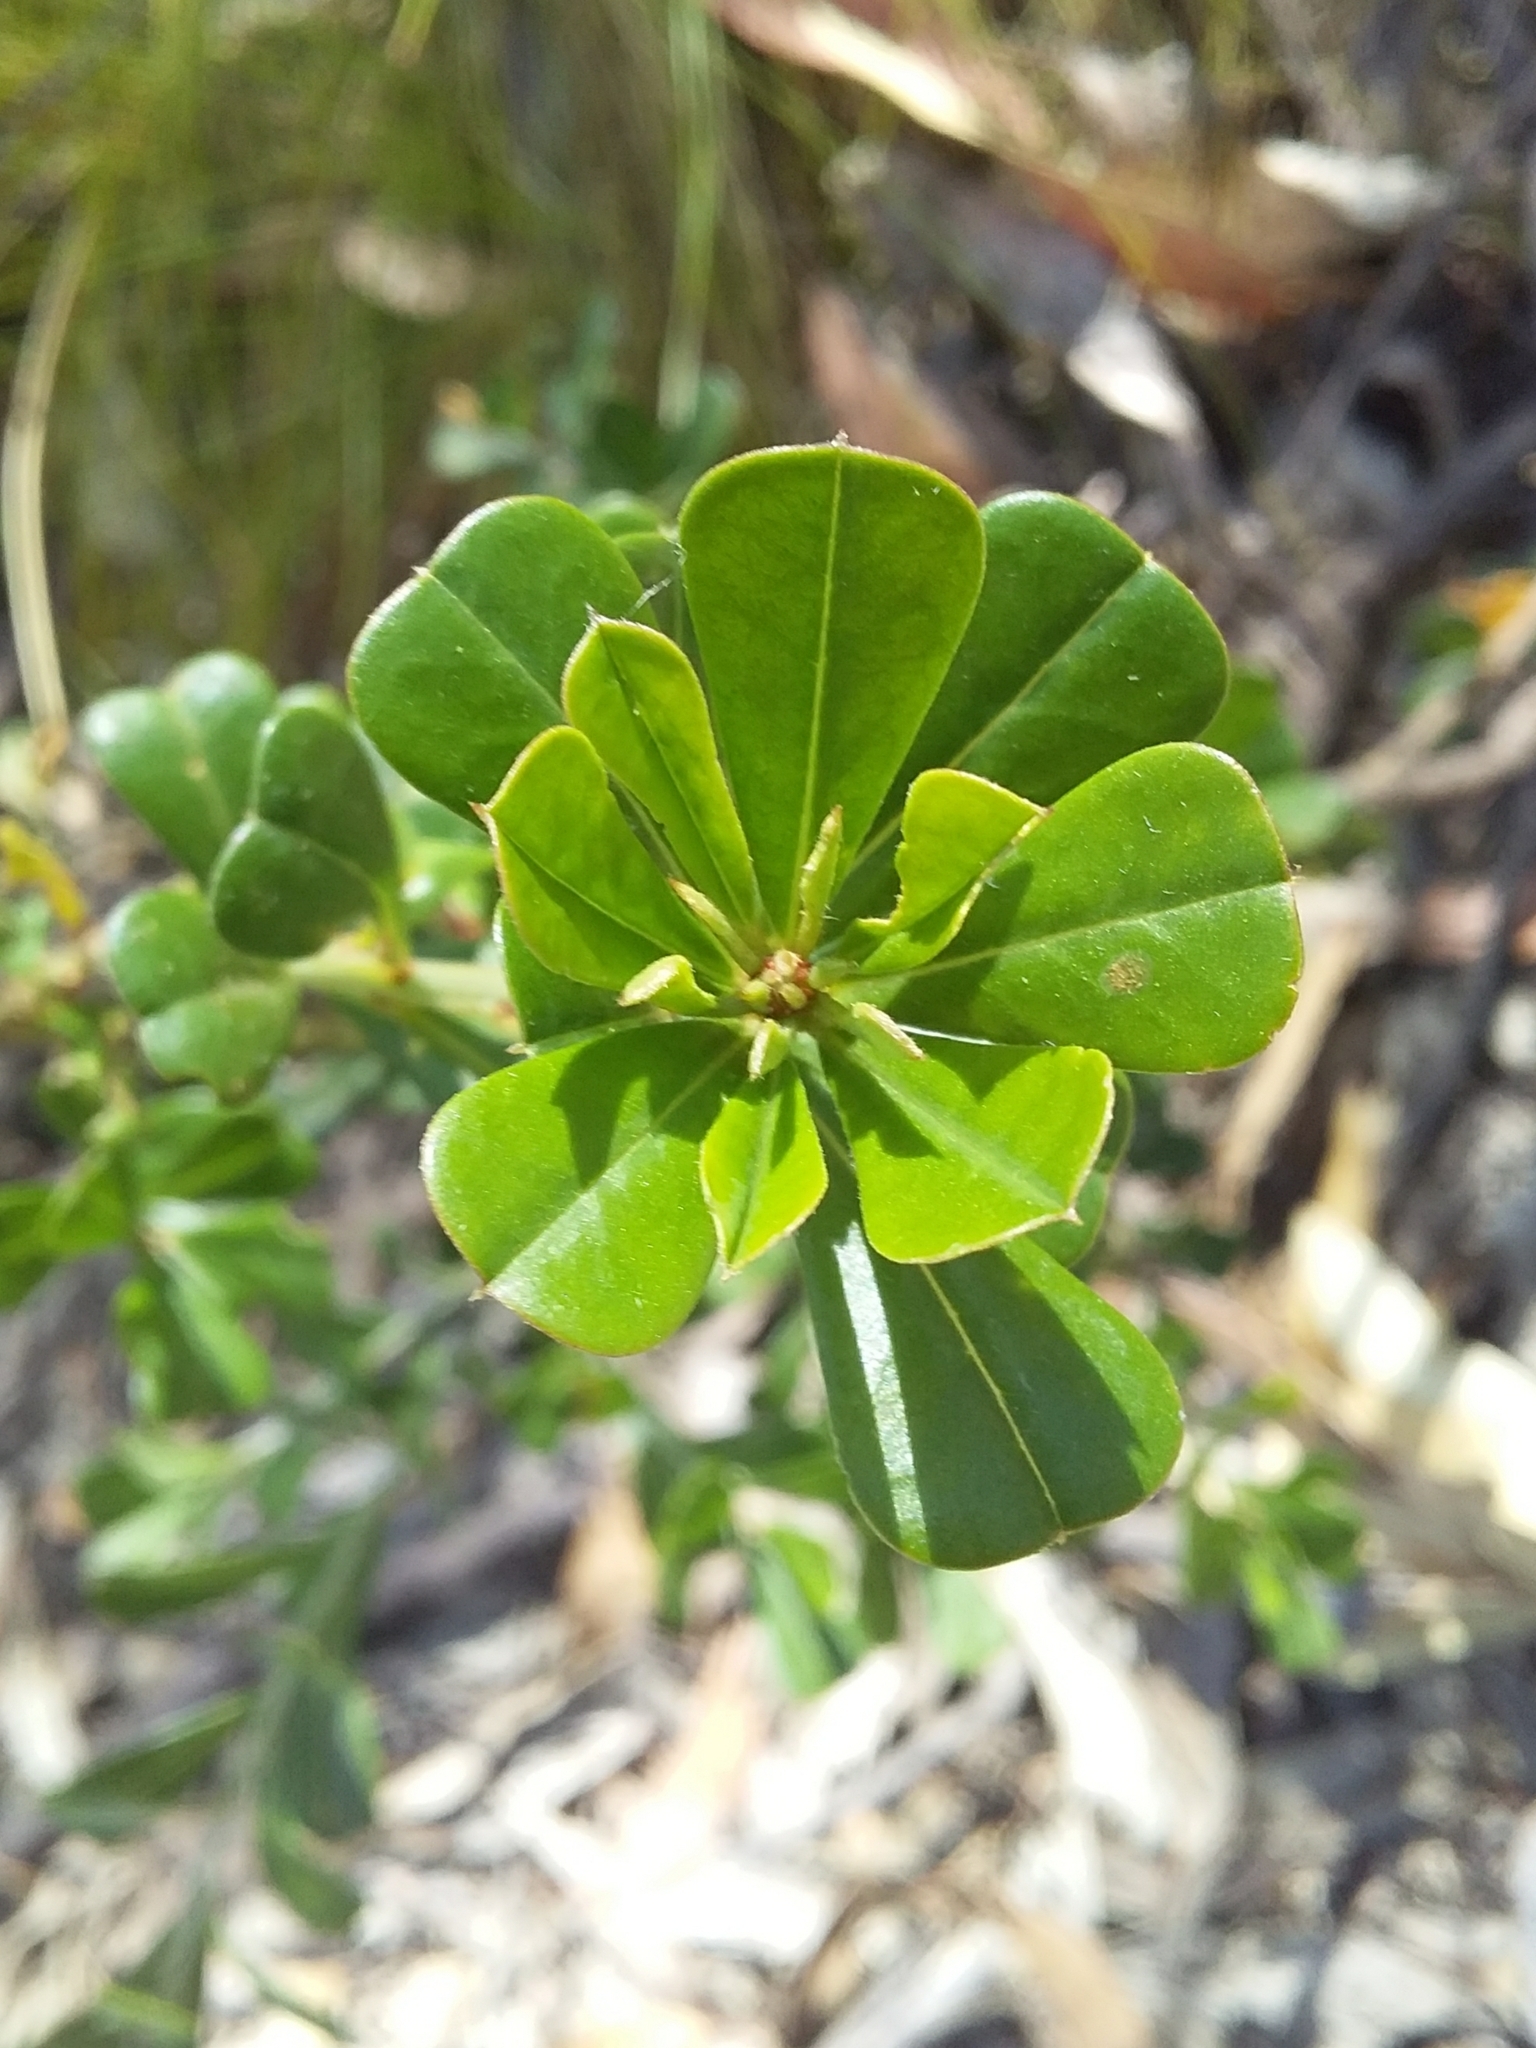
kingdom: Plantae
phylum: Tracheophyta
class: Magnoliopsida
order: Fabales
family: Fabaceae
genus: Pultenaea
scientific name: Pultenaea daphnoides
